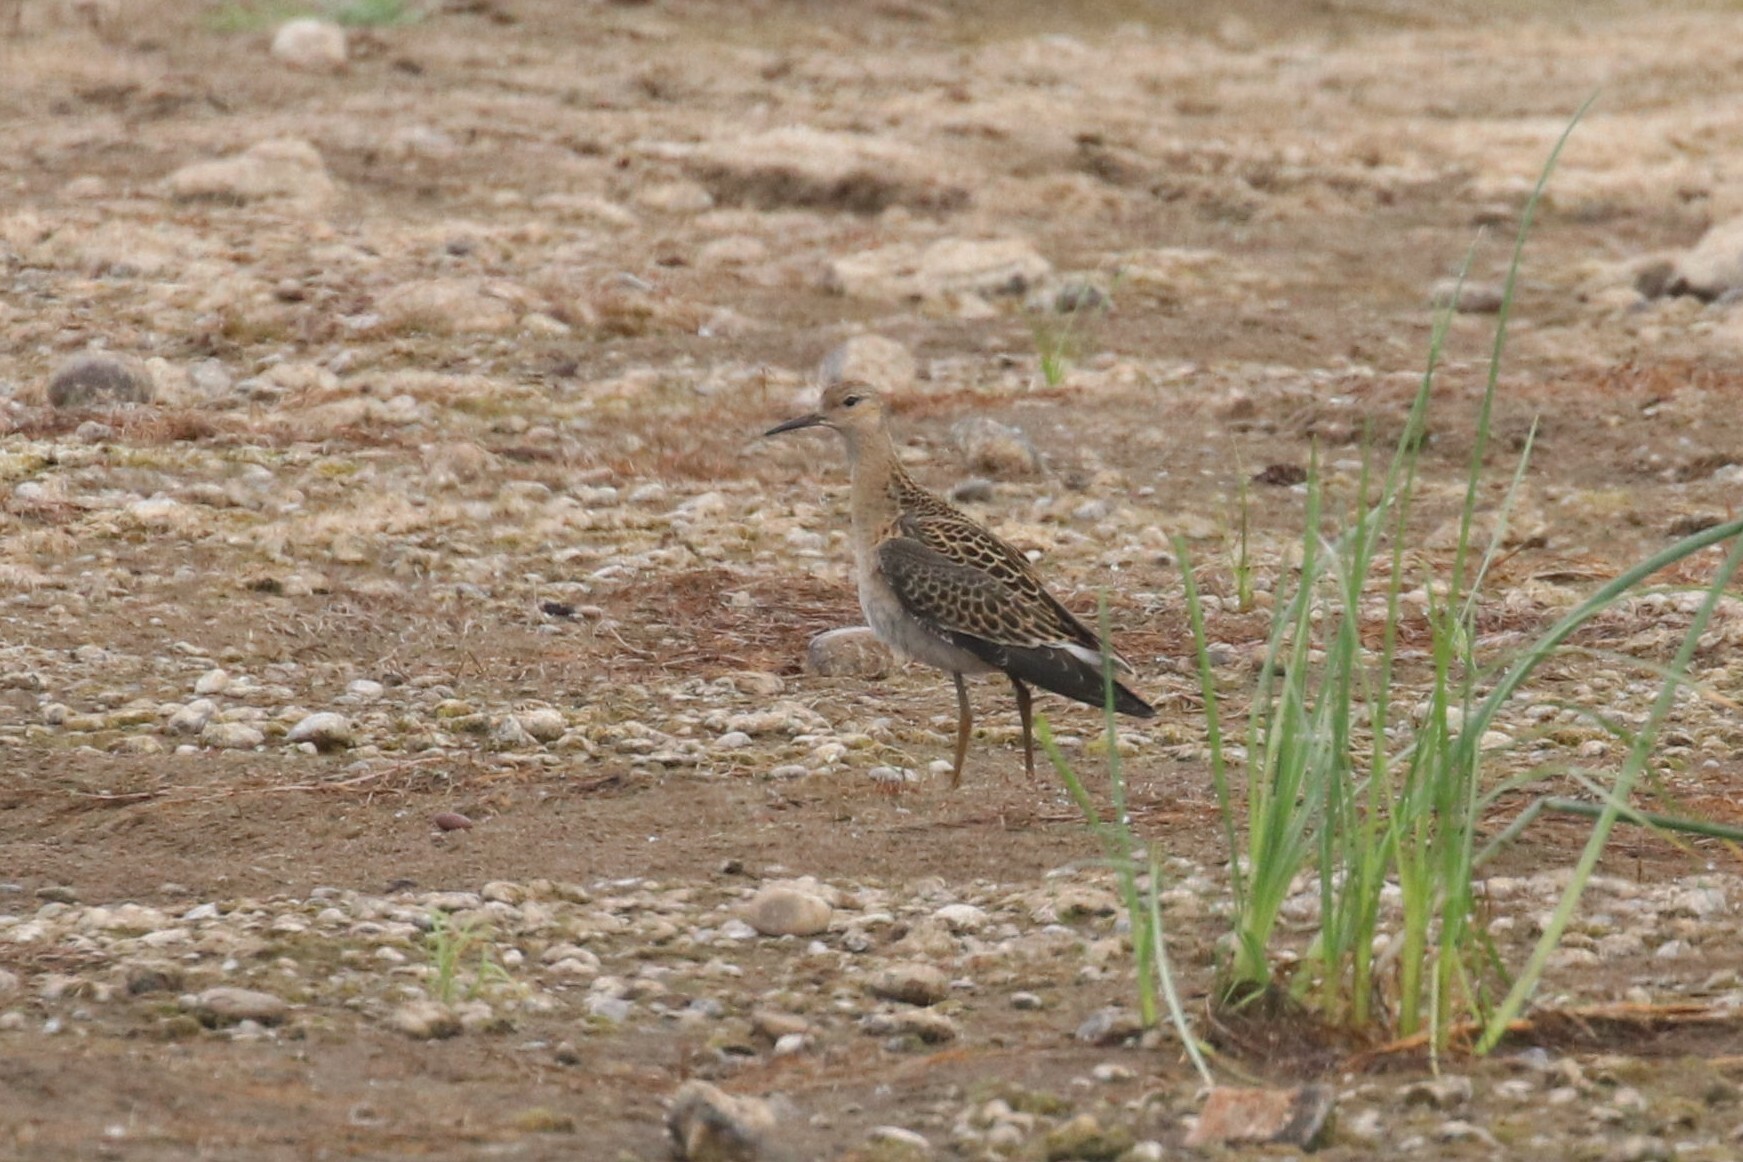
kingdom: Animalia
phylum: Chordata
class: Aves
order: Charadriiformes
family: Scolopacidae
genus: Calidris
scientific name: Calidris pugnax
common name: Ruff
